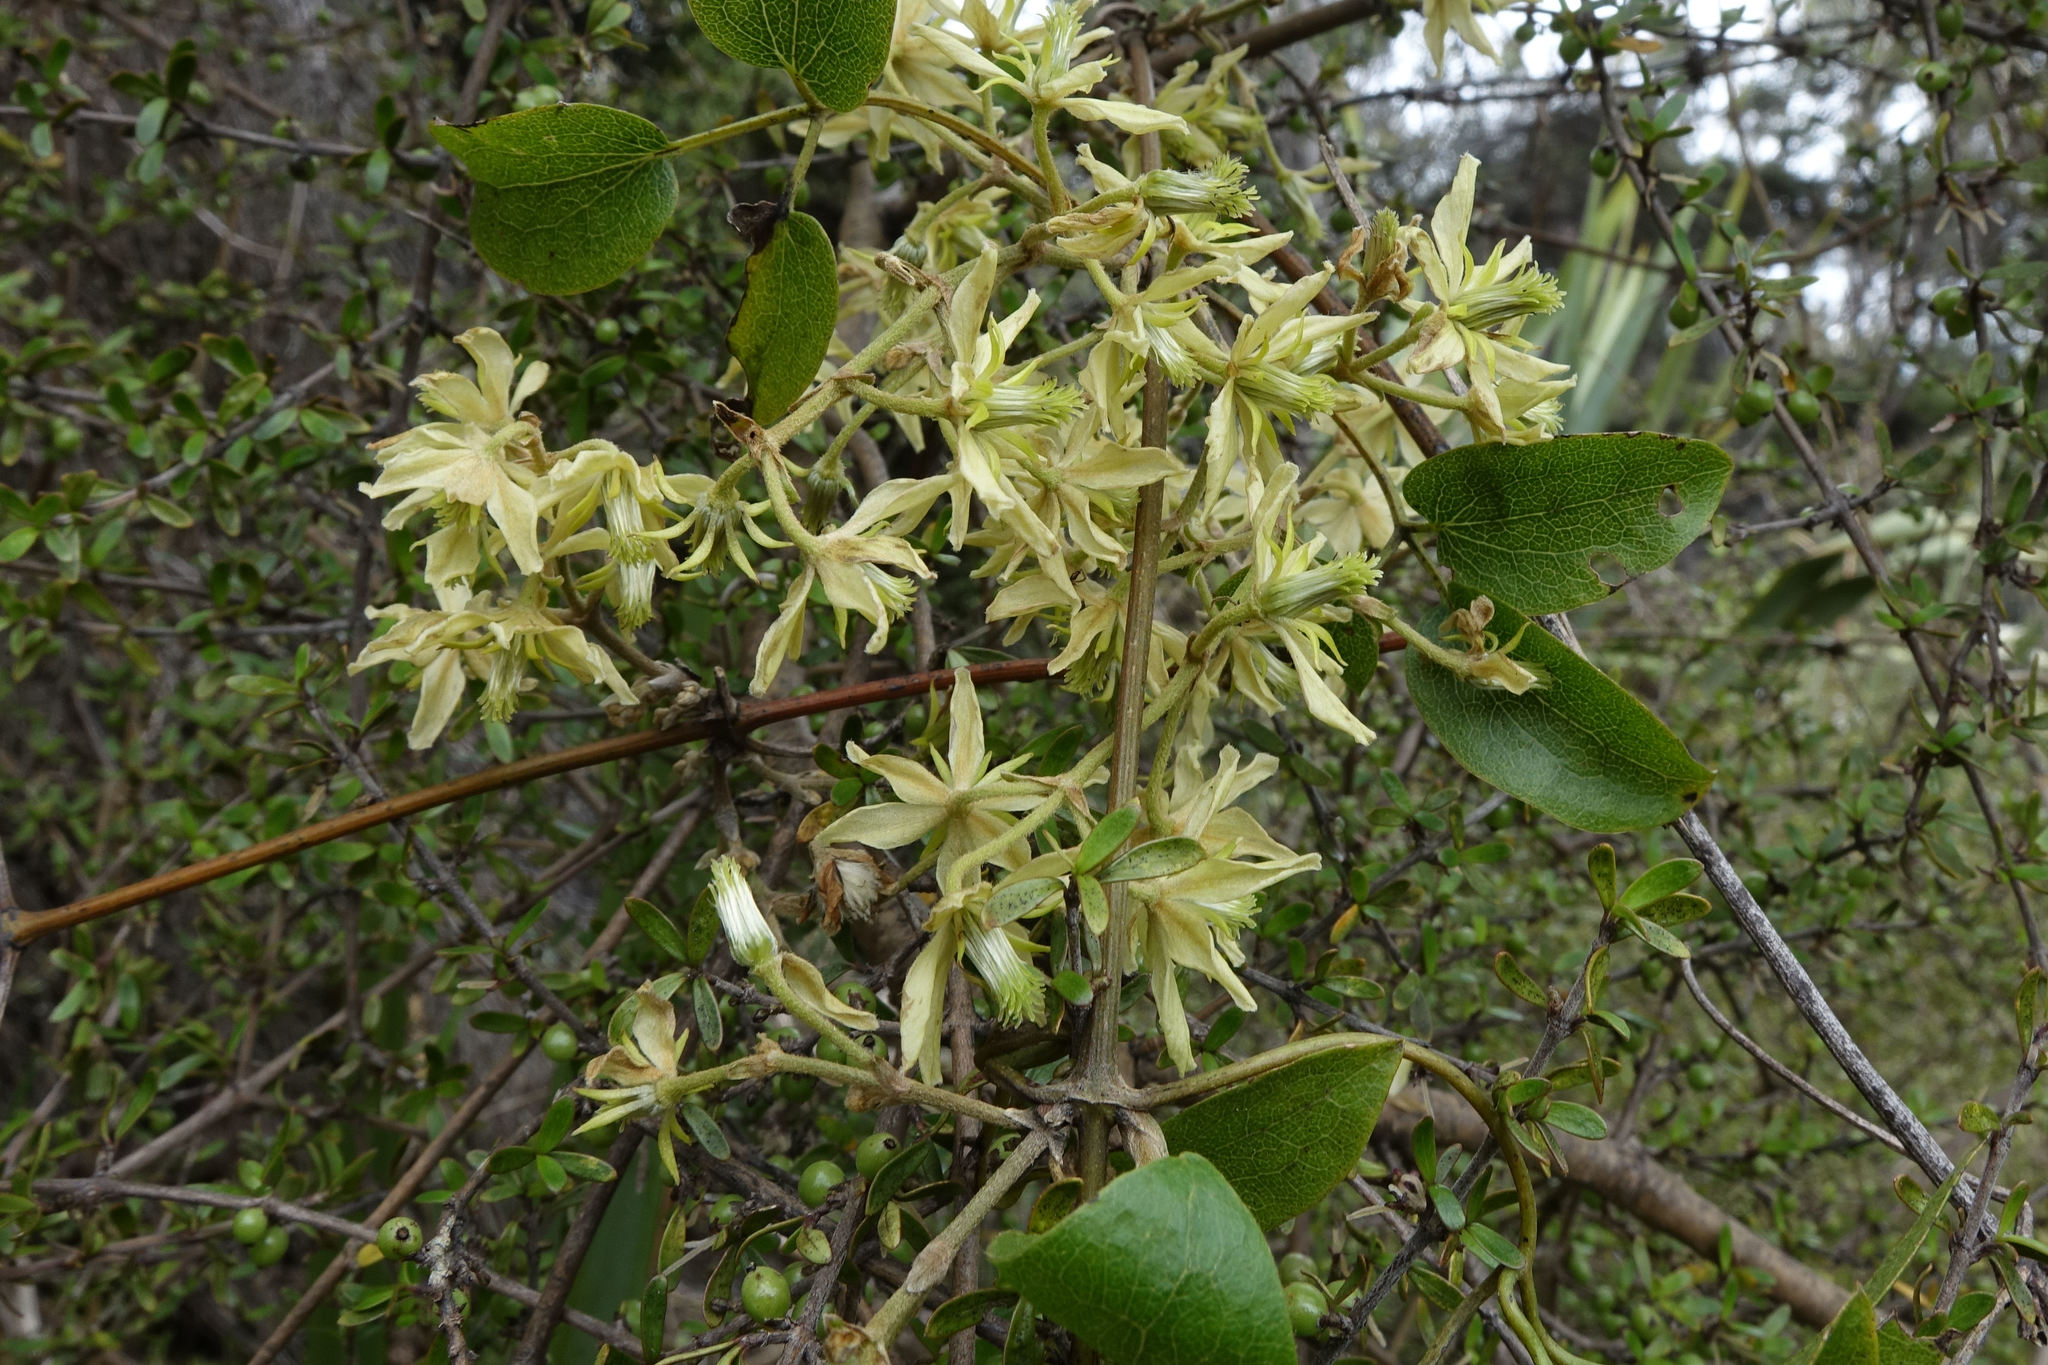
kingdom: Plantae
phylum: Tracheophyta
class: Magnoliopsida
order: Ranunculales
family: Ranunculaceae
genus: Clematis
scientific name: Clematis foetida
